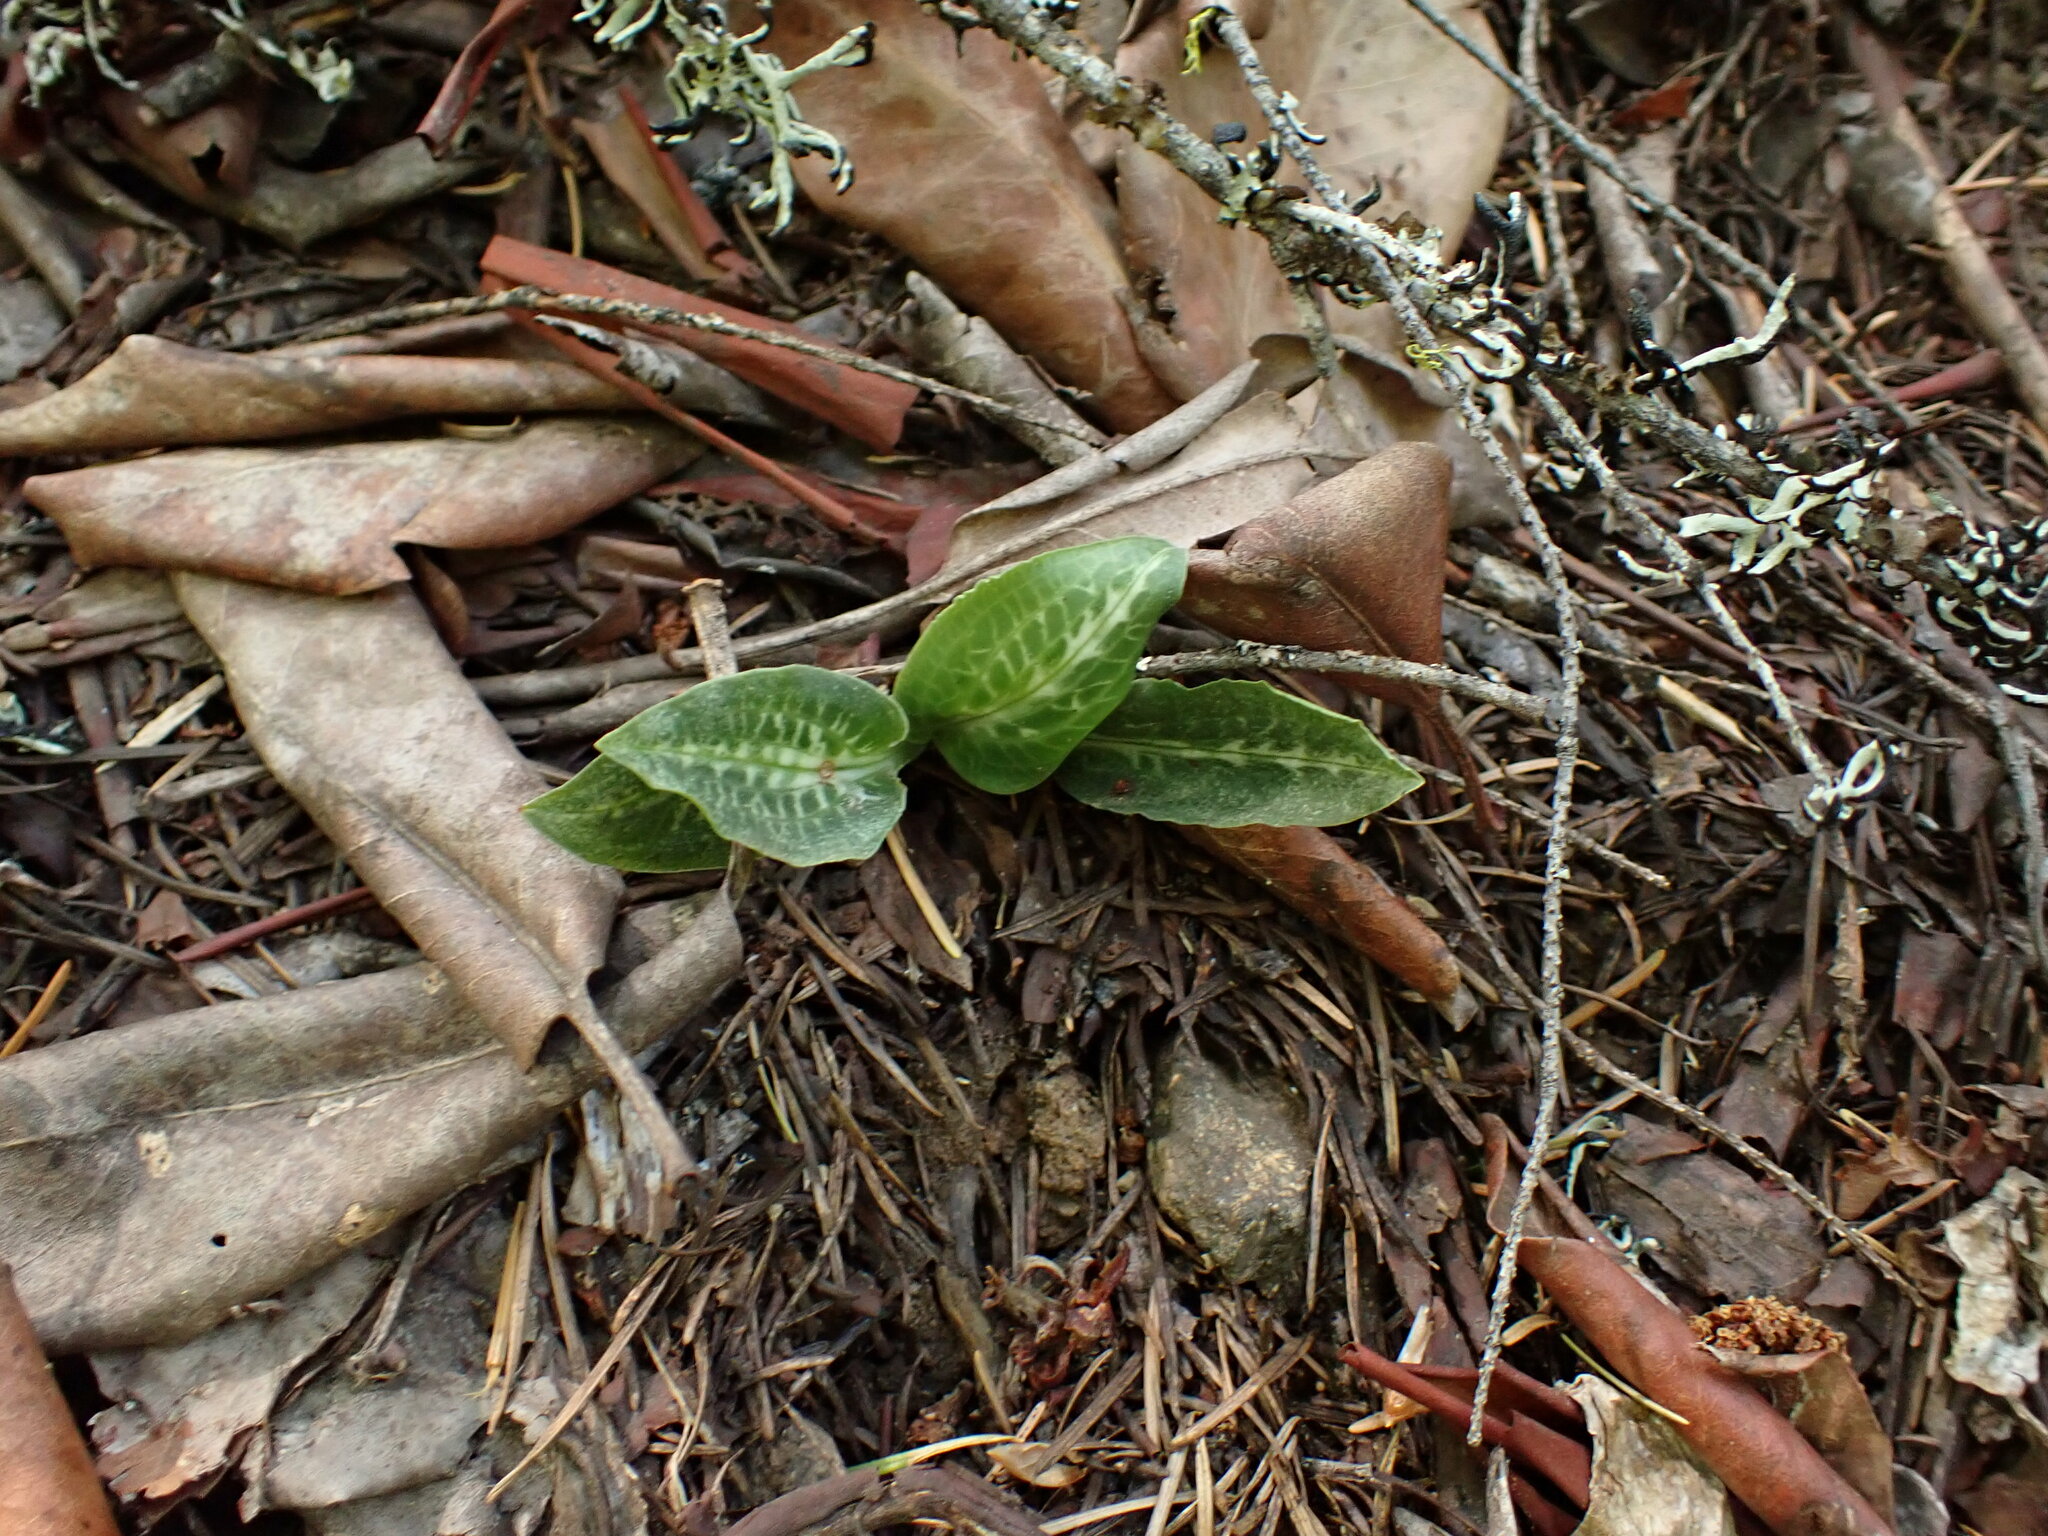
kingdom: Plantae
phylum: Tracheophyta
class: Liliopsida
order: Asparagales
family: Orchidaceae
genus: Goodyera
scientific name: Goodyera oblongifolia
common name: Giant rattlesnake-plantain
